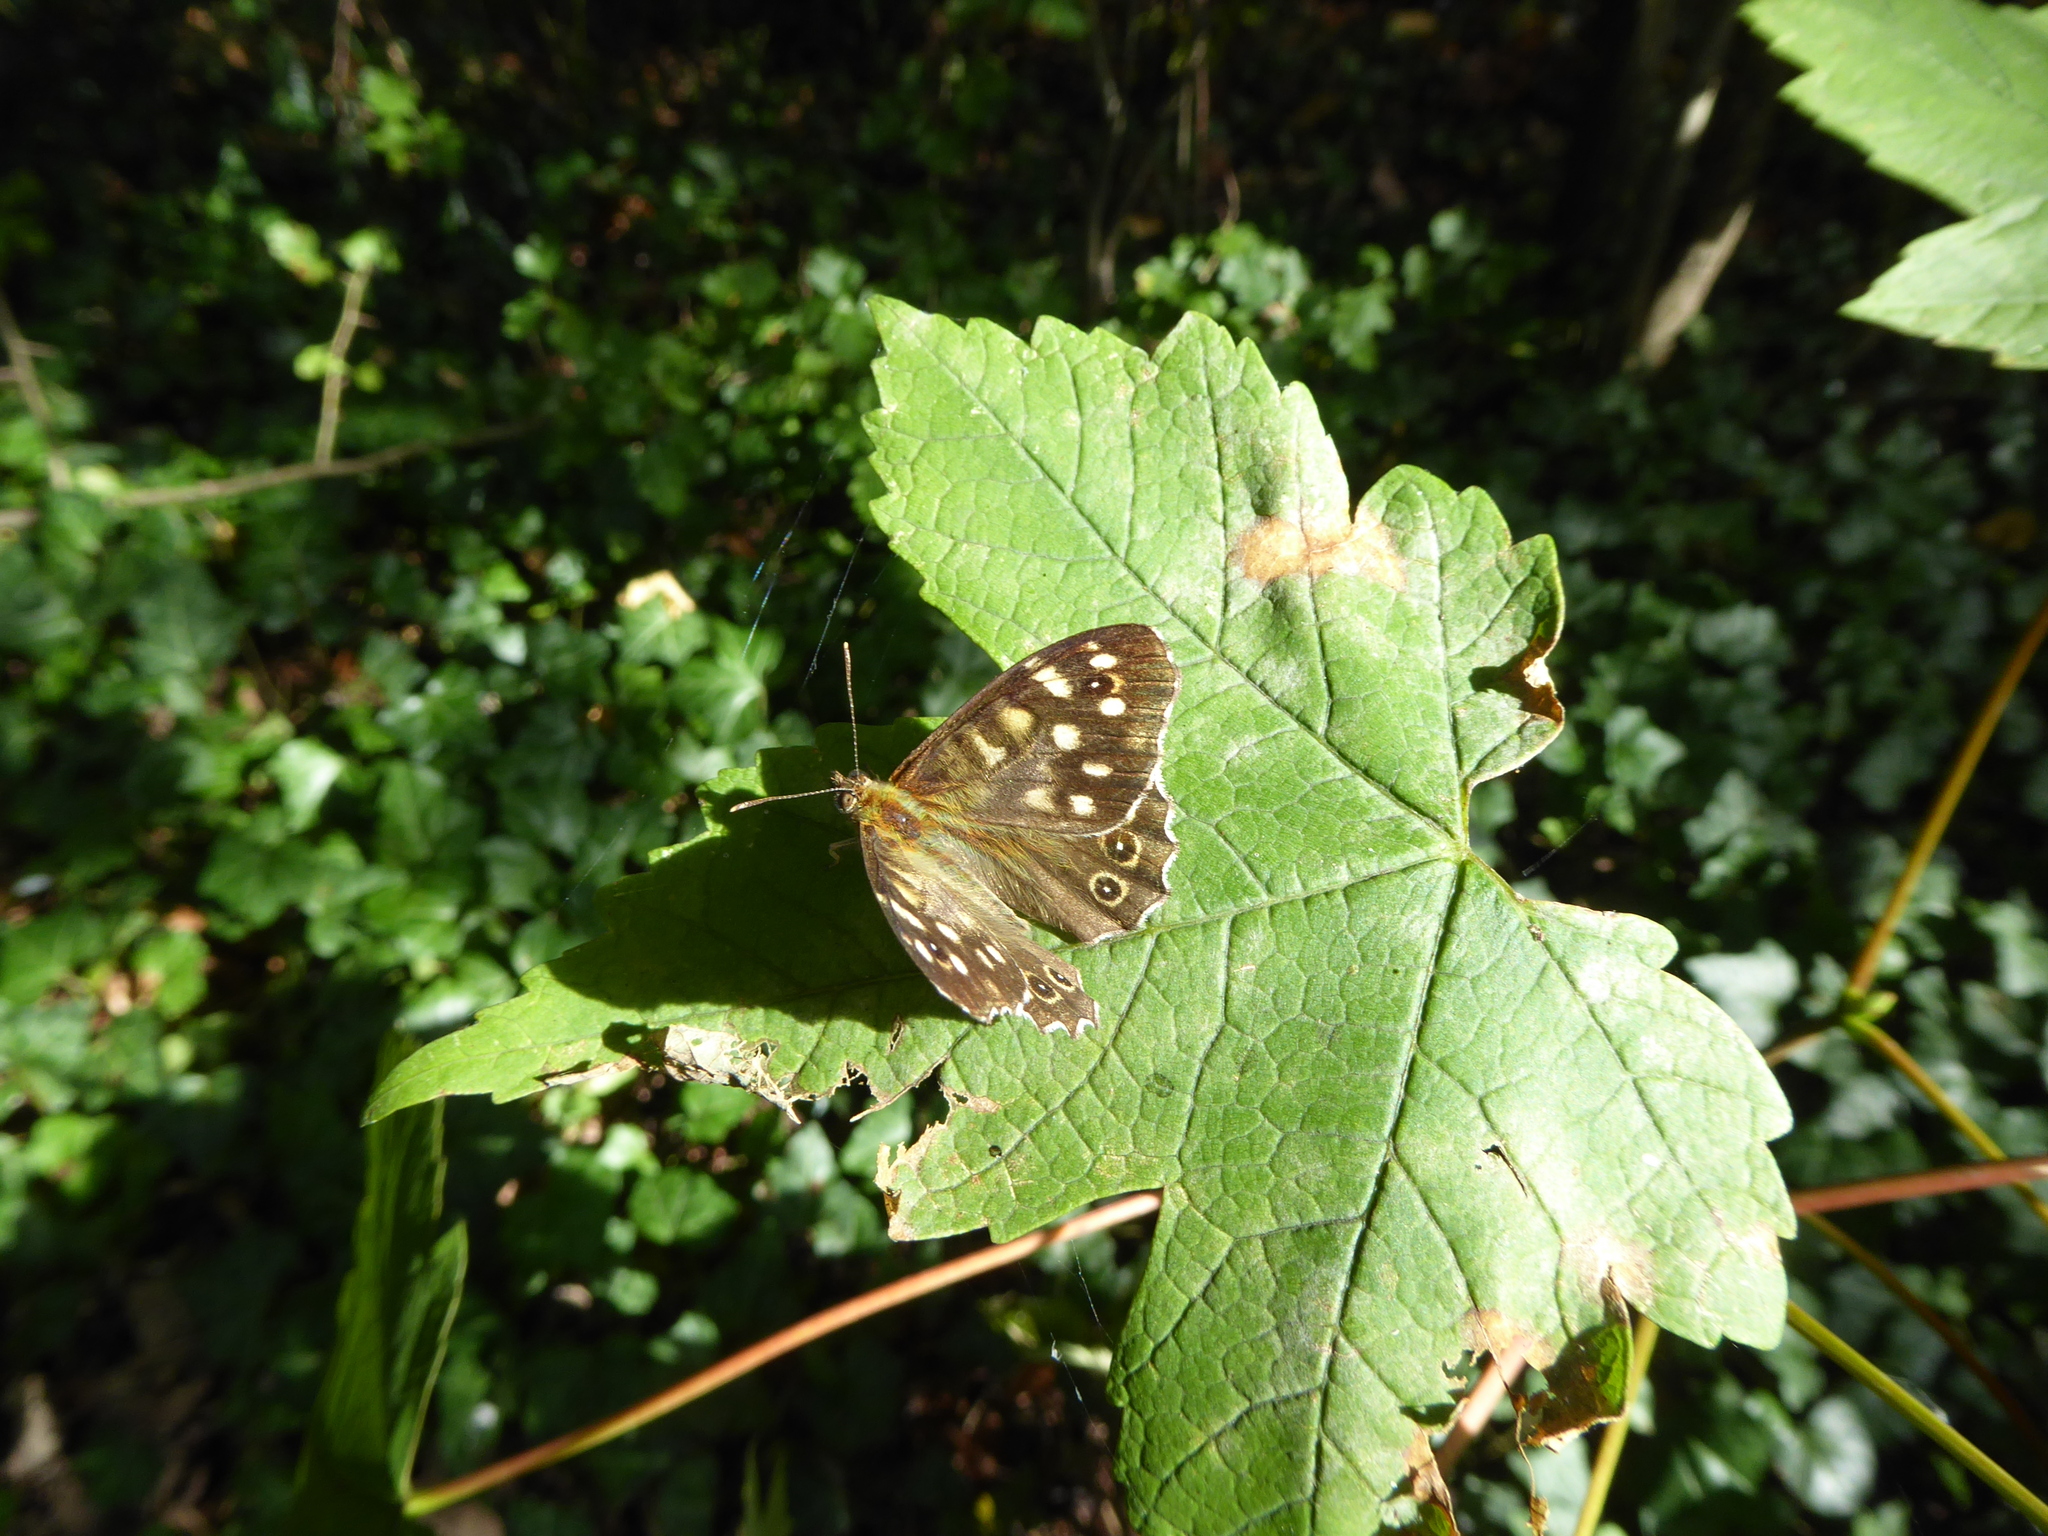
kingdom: Animalia
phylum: Arthropoda
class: Insecta
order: Lepidoptera
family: Nymphalidae
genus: Pararge
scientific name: Pararge aegeria
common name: Speckled wood
